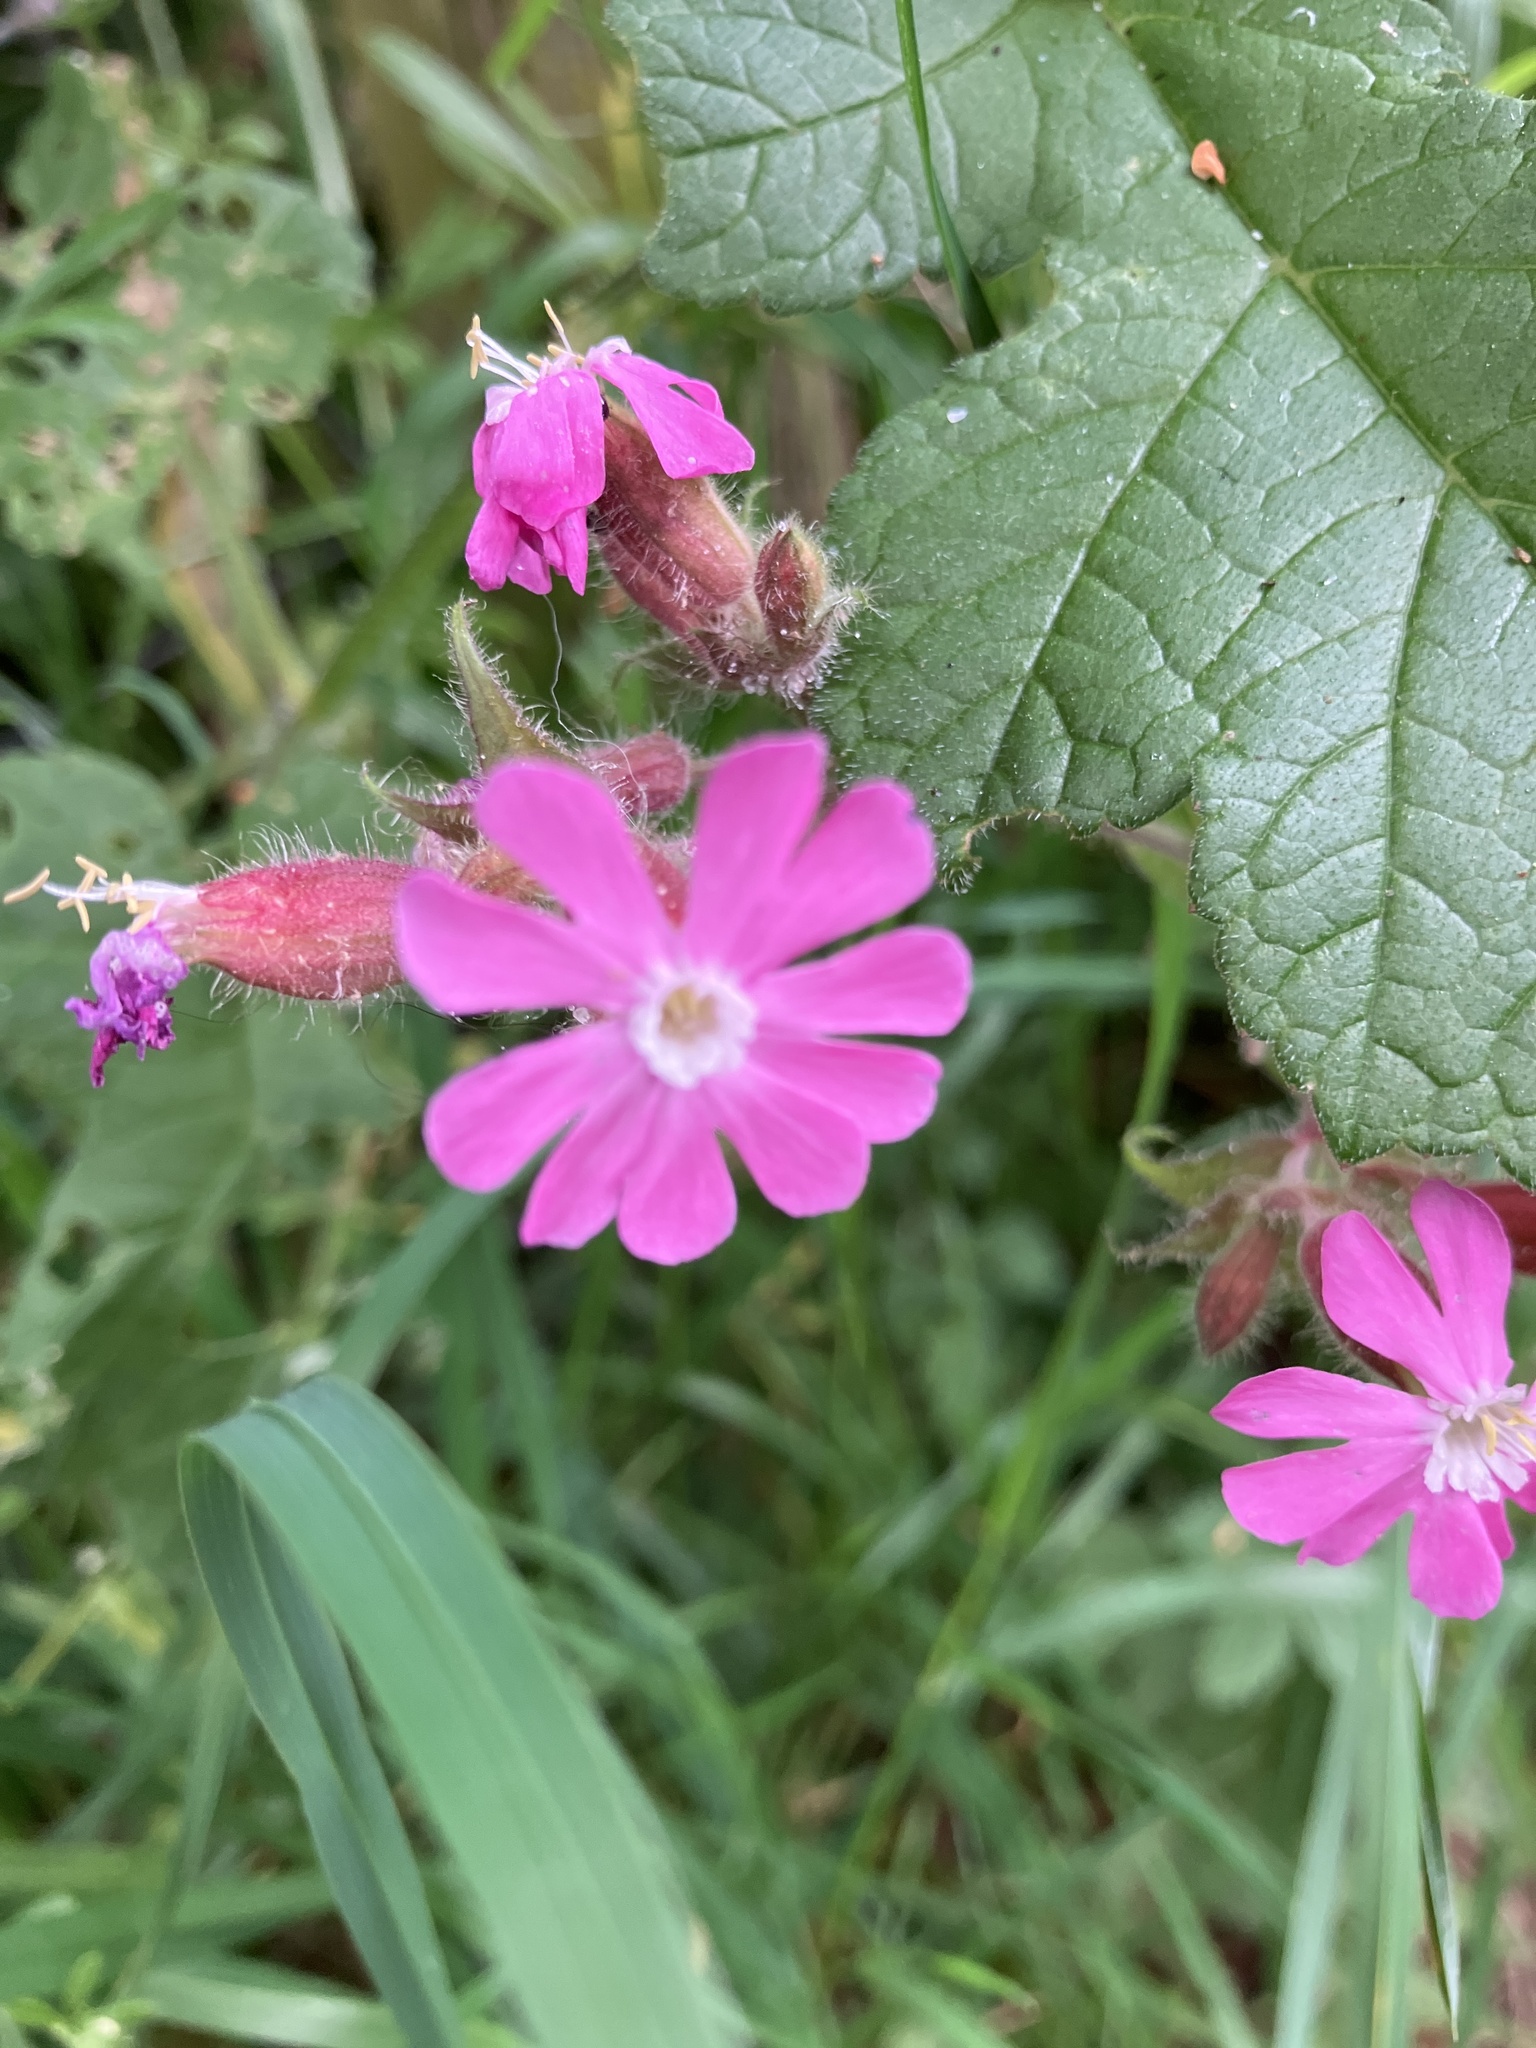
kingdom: Plantae
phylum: Tracheophyta
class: Magnoliopsida
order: Caryophyllales
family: Caryophyllaceae
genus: Silene
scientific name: Silene dioica
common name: Red campion
